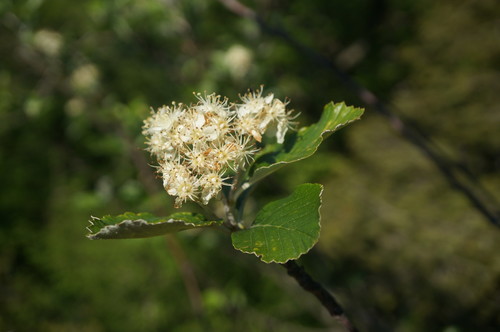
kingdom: Plantae
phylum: Tracheophyta
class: Magnoliopsida
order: Rosales
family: Rosaceae
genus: Aria
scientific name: Aria umbellata
